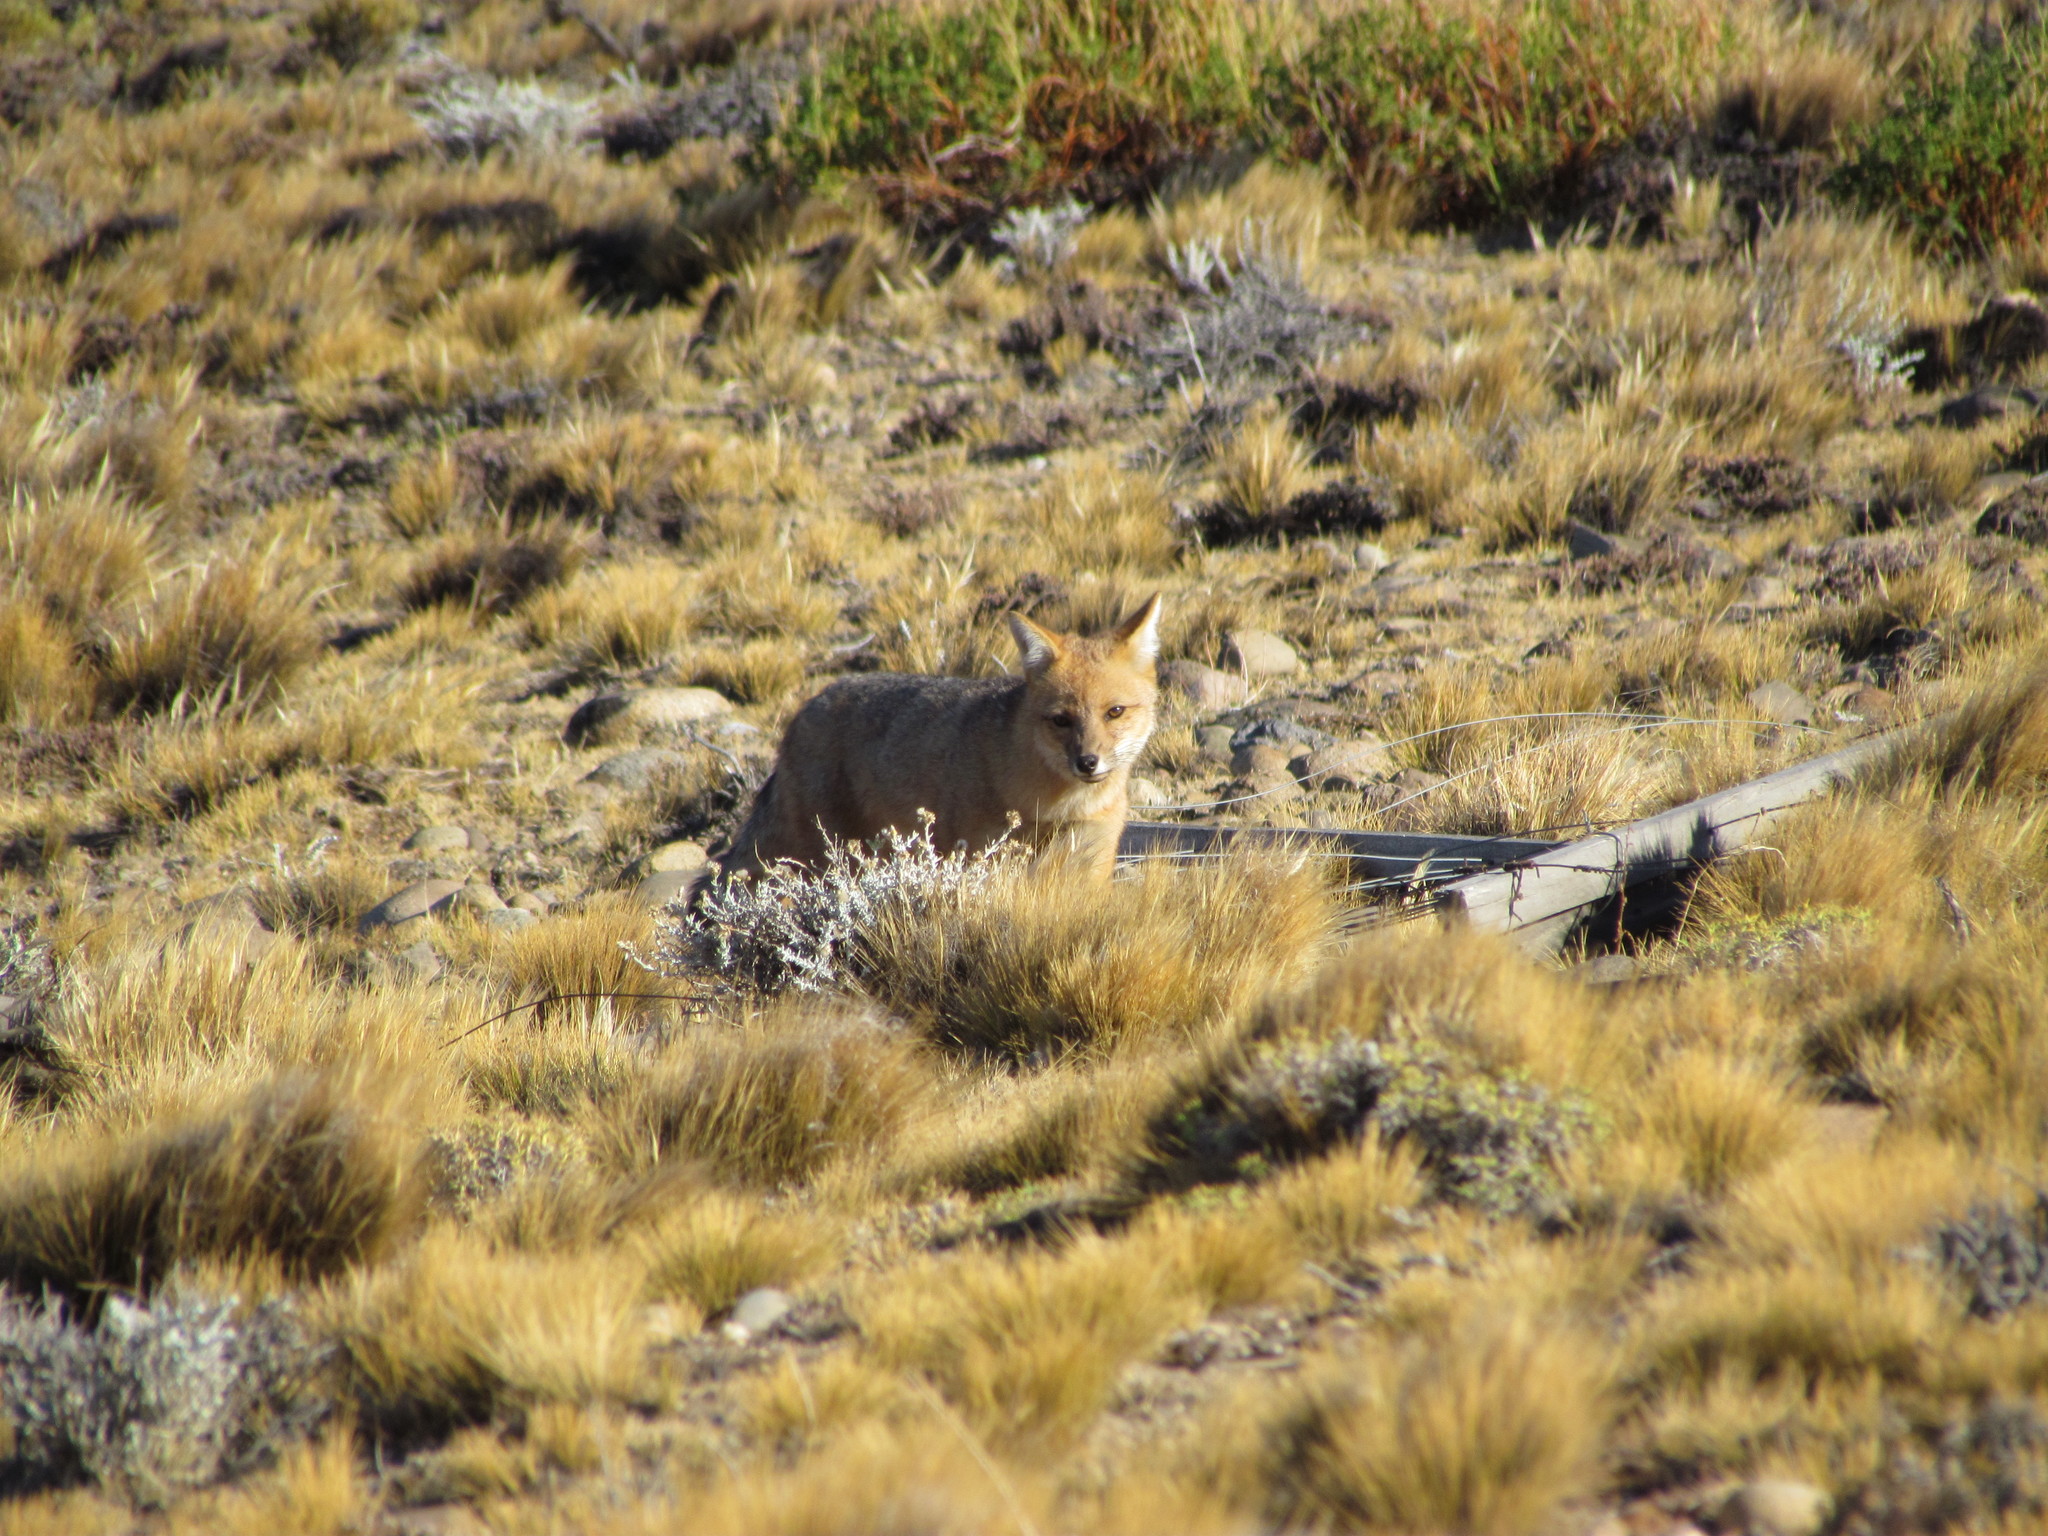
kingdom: Animalia
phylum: Chordata
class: Mammalia
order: Carnivora
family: Canidae
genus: Lycalopex
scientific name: Lycalopex culpaeus
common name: Culpeo
